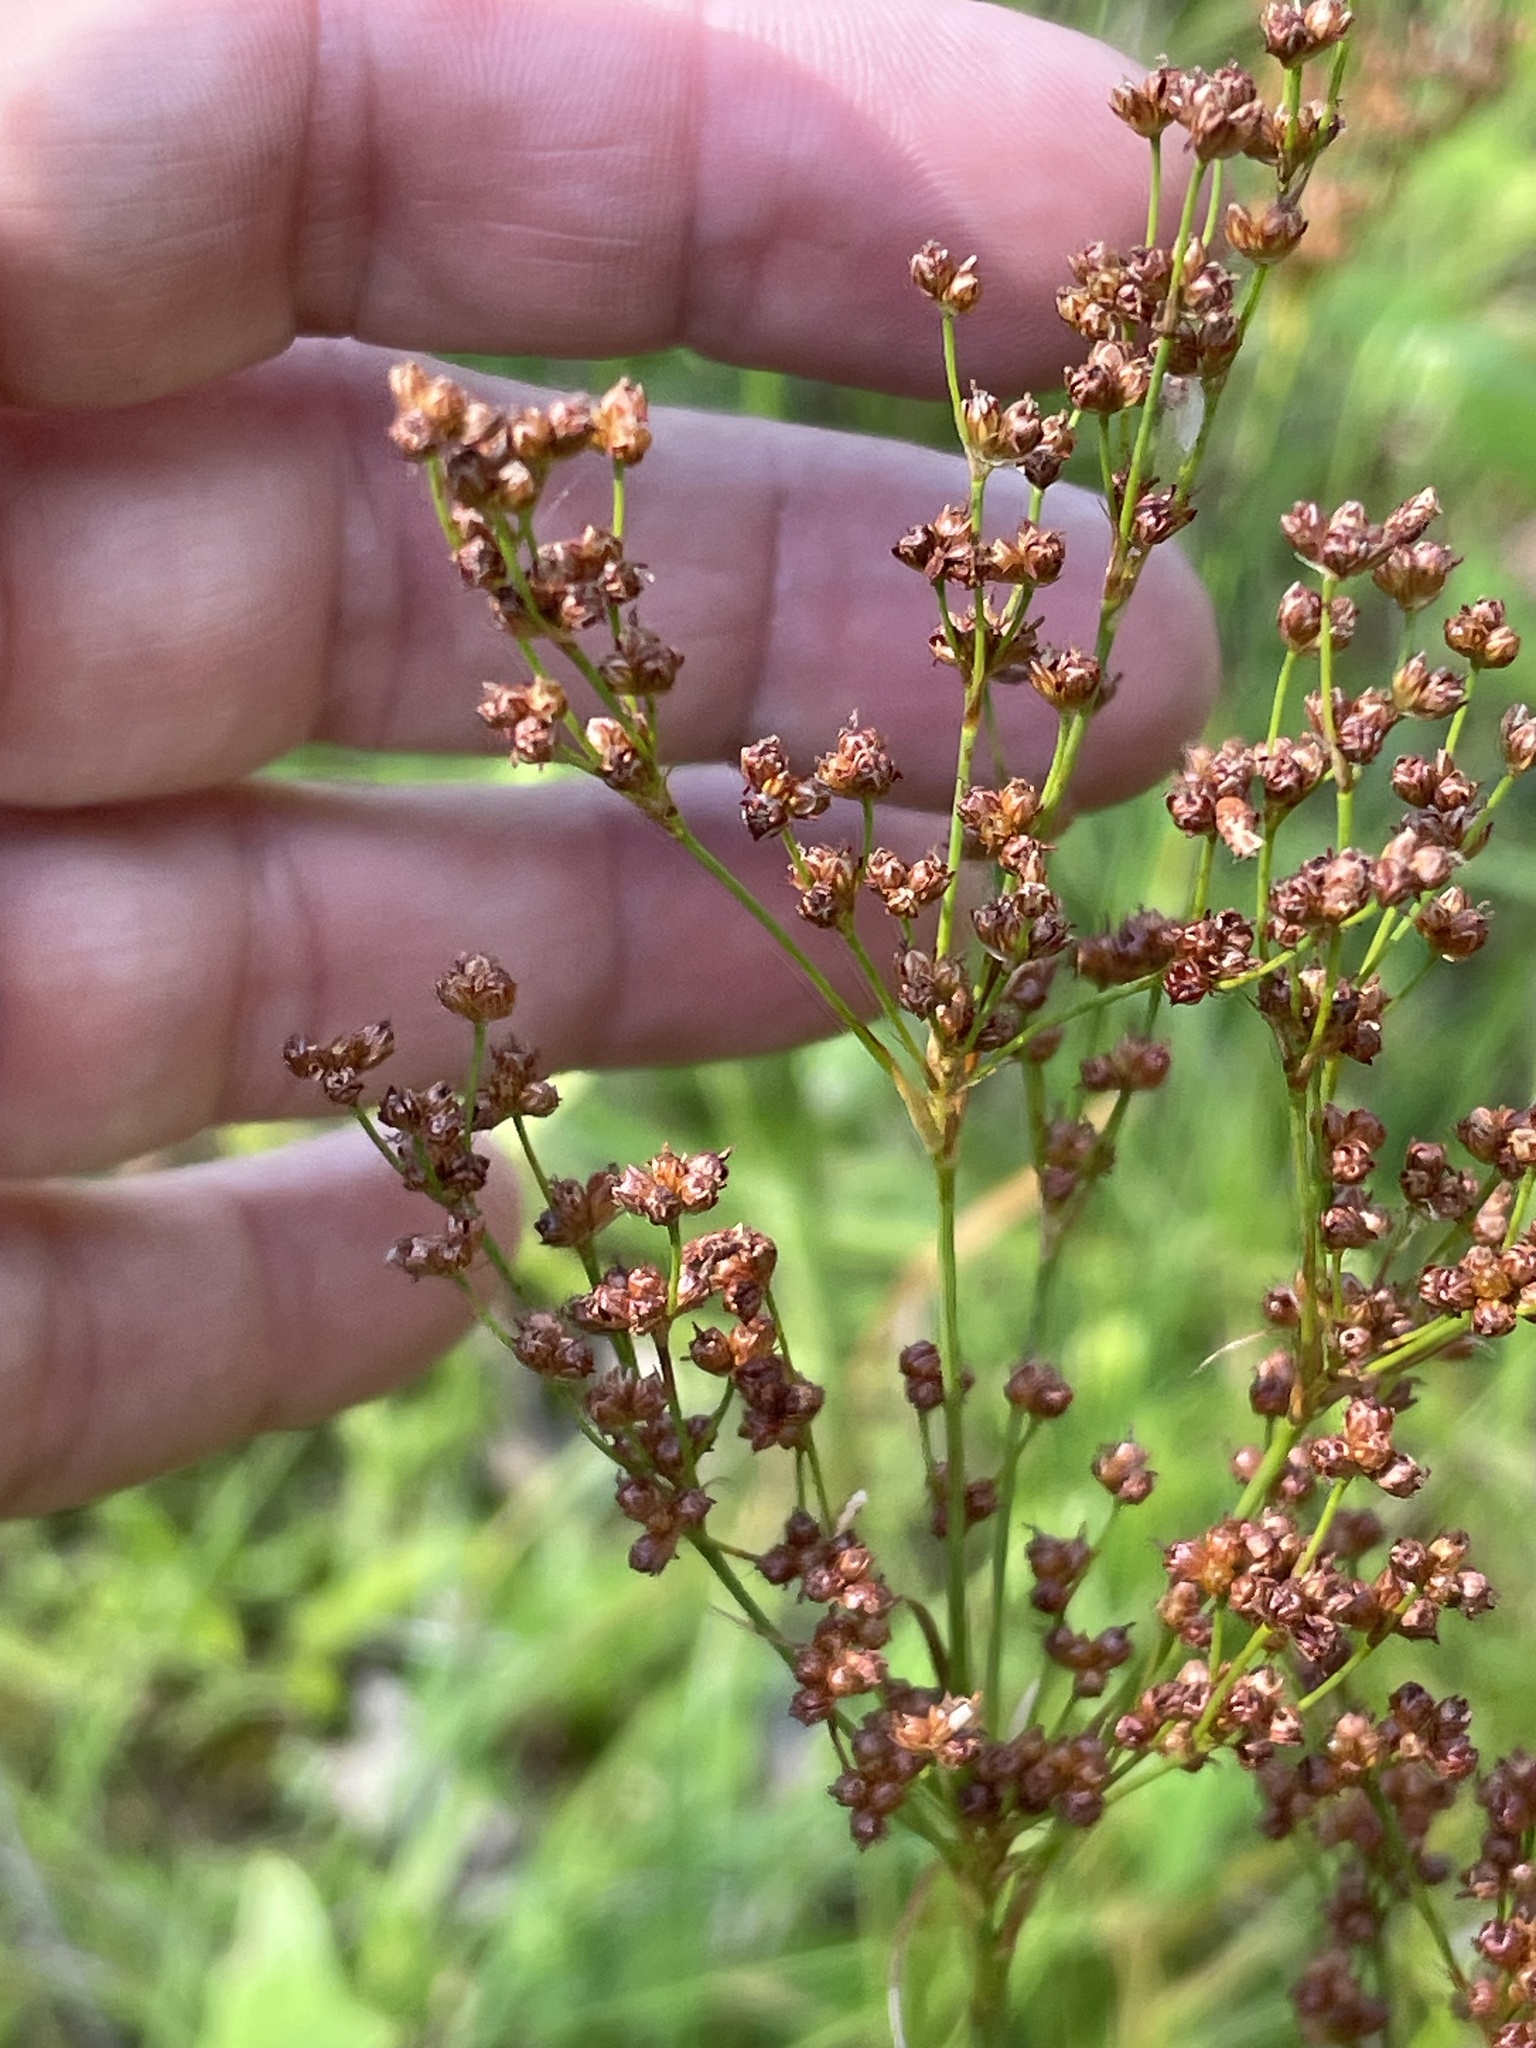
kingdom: Plantae
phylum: Tracheophyta
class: Liliopsida
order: Poales
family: Juncaceae
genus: Juncus
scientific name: Juncus biflorus
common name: Two-flowered rush
